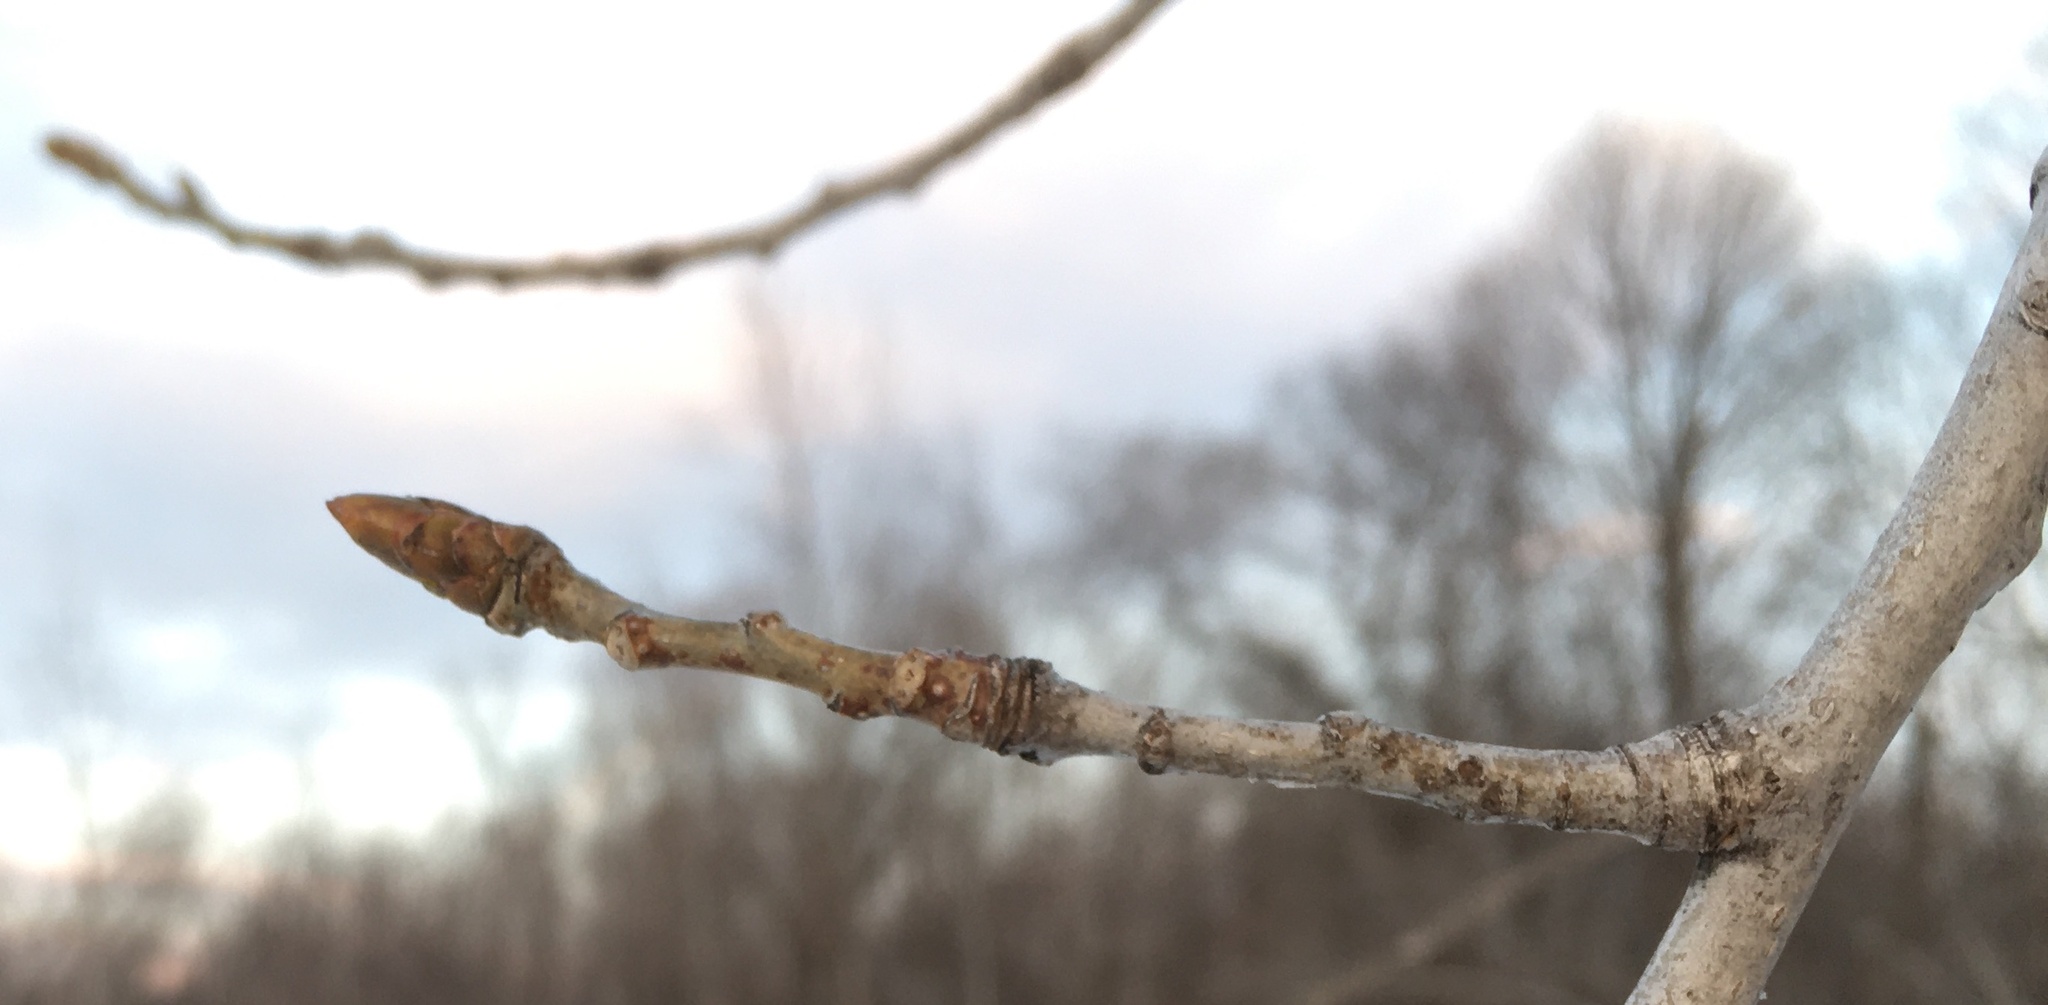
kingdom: Plantae
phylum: Tracheophyta
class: Magnoliopsida
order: Malpighiales
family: Salicaceae
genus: Populus
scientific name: Populus deltoides
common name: Eastern cottonwood
